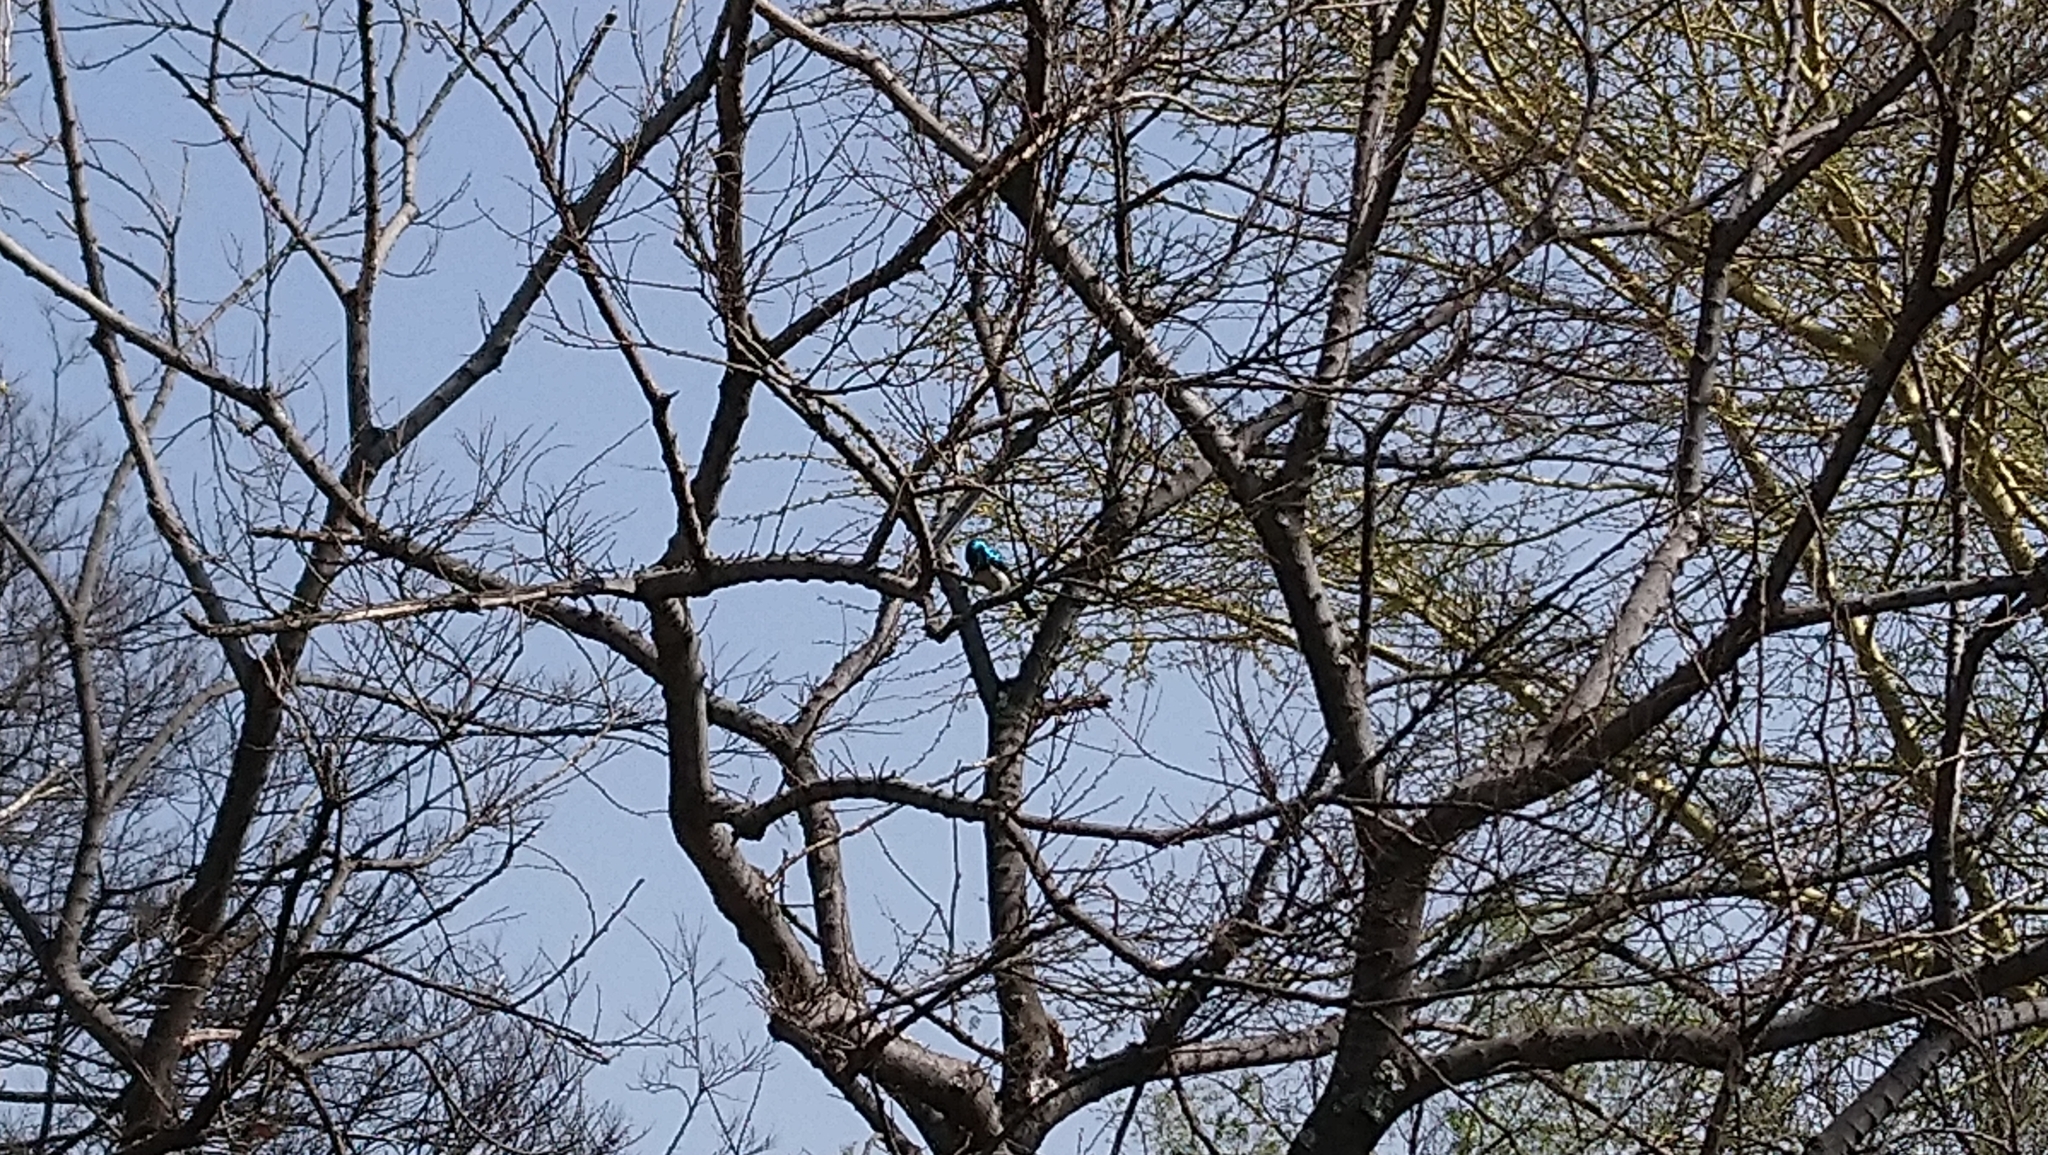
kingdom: Animalia
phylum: Chordata
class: Aves
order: Passeriformes
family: Nectariniidae
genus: Cinnyris
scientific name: Cinnyris talatala
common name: White-bellied sunbird
